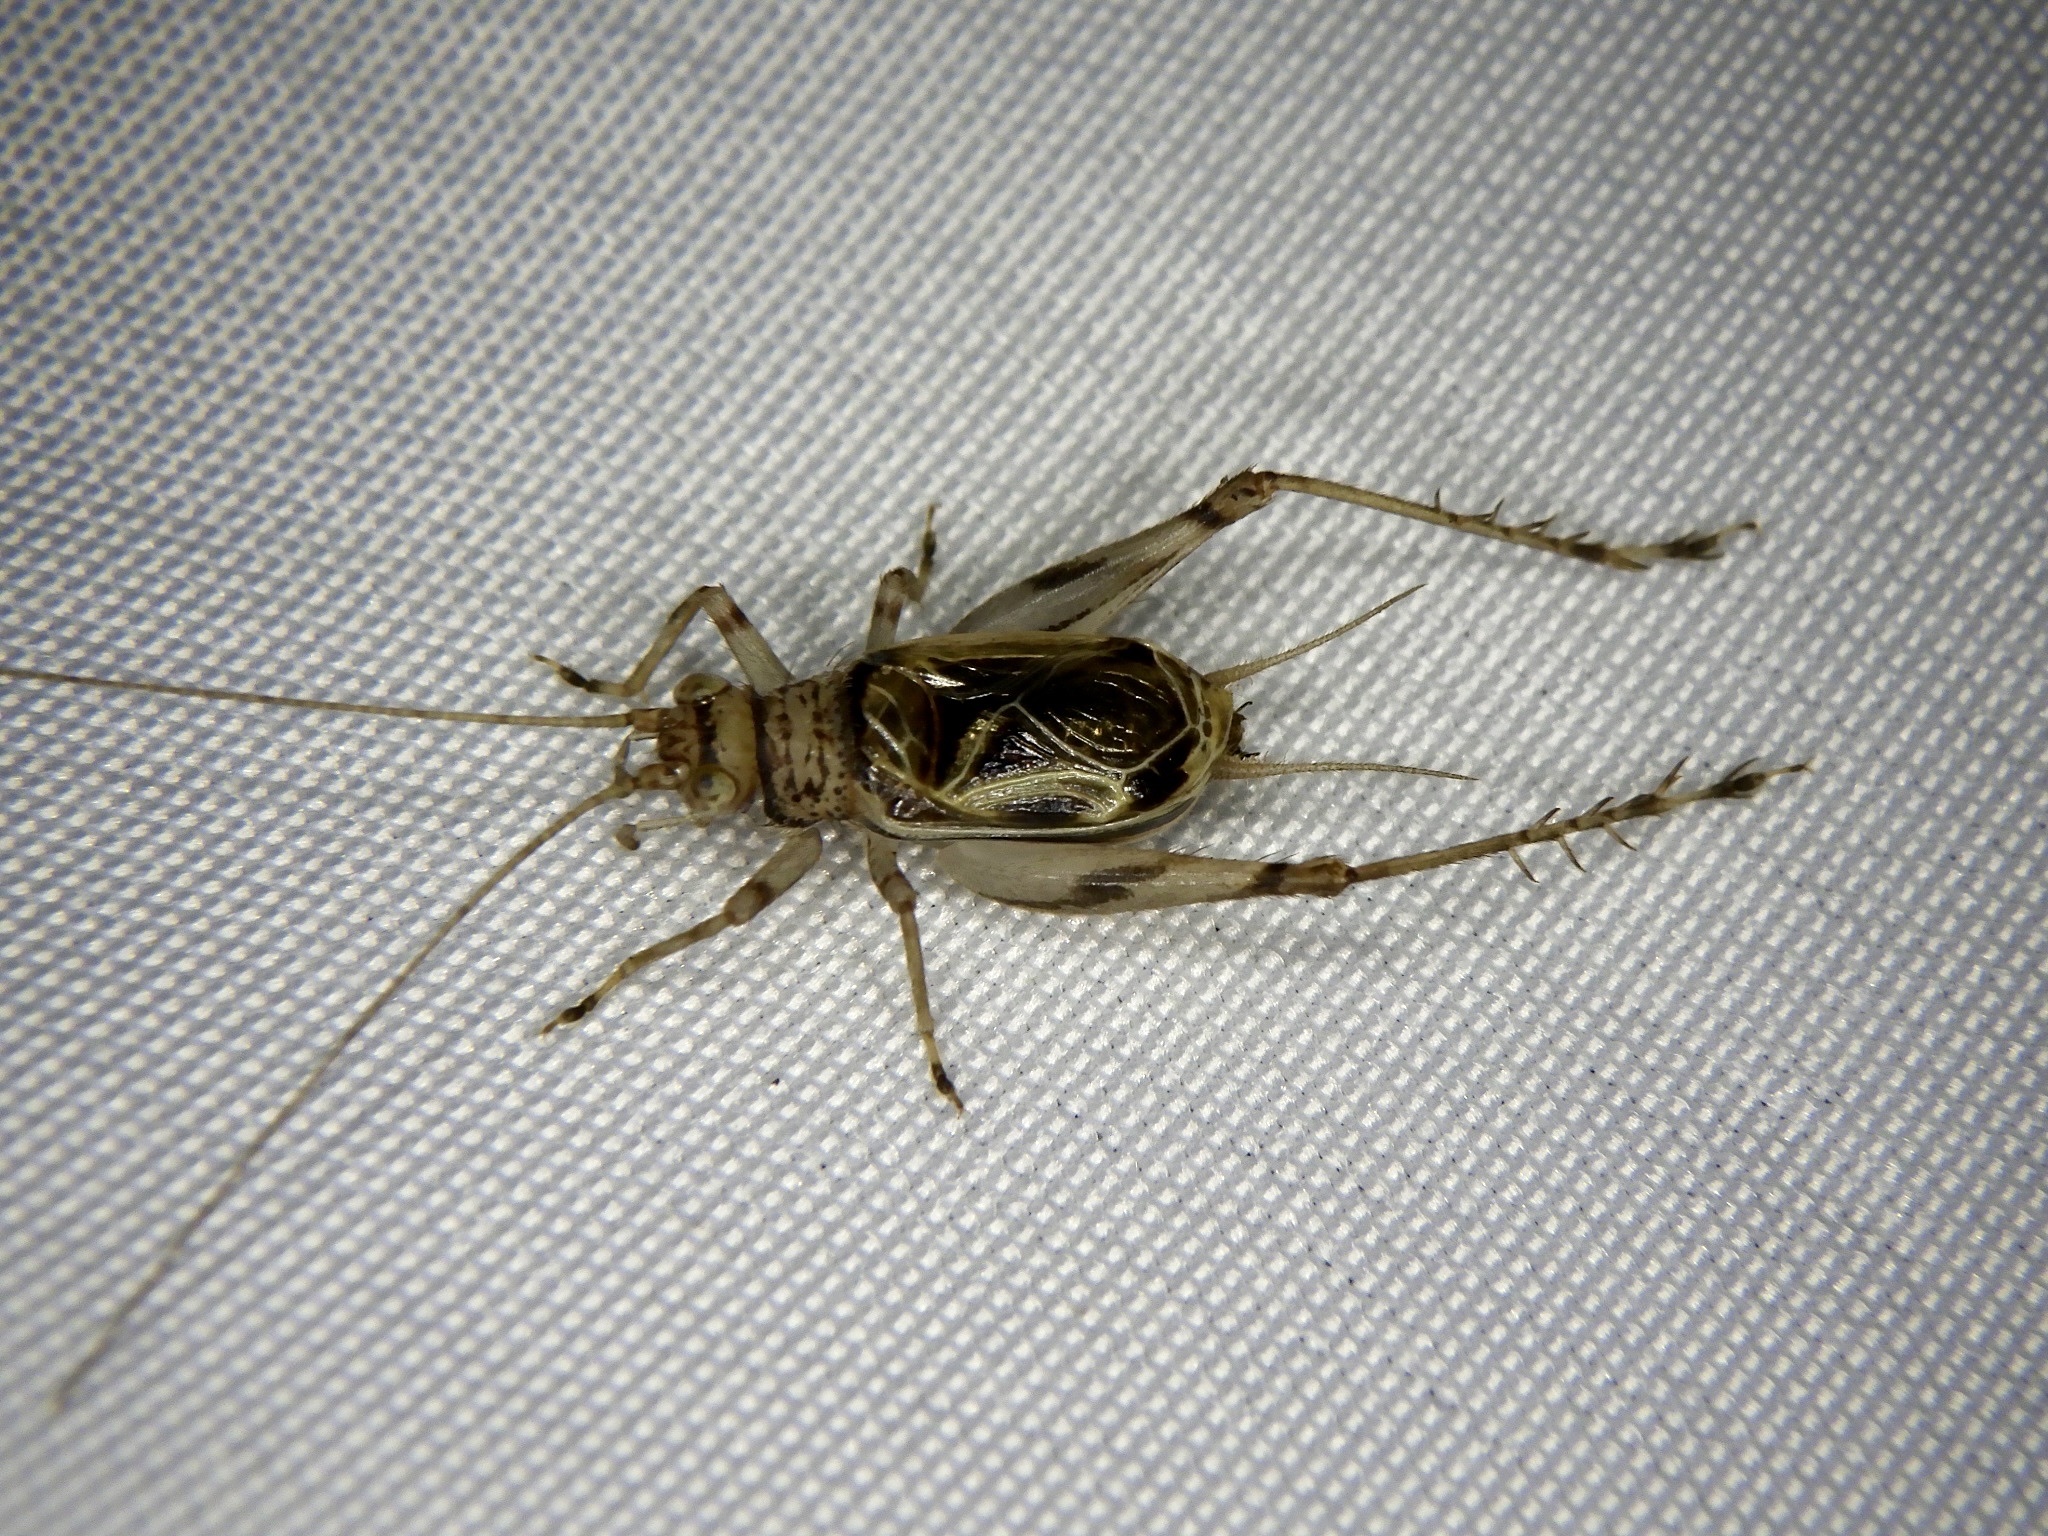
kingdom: Animalia
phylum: Arthropoda
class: Insecta
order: Orthoptera
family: Trigonidiidae
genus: Svistella
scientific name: Svistella bifasciata
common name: Gold bell
